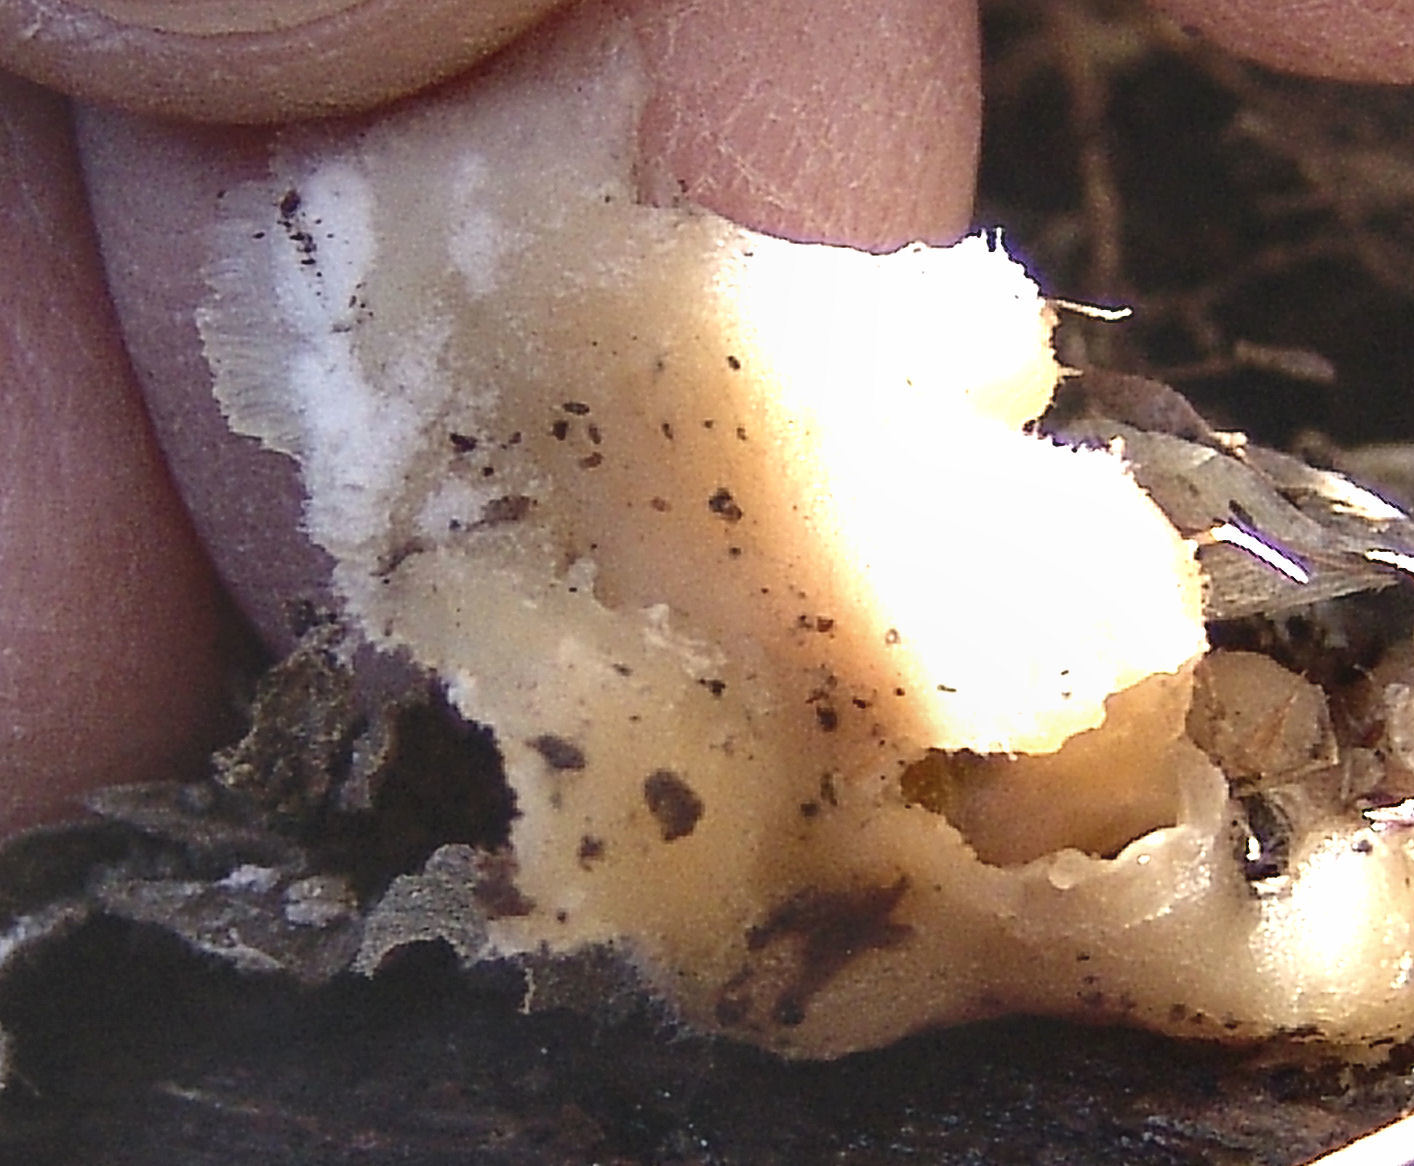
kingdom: Fungi
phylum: Basidiomycota
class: Agaricomycetes
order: Polyporales
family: Meruliaceae
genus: Phlebia
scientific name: Phlebia tremellosa
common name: Jelly rot
